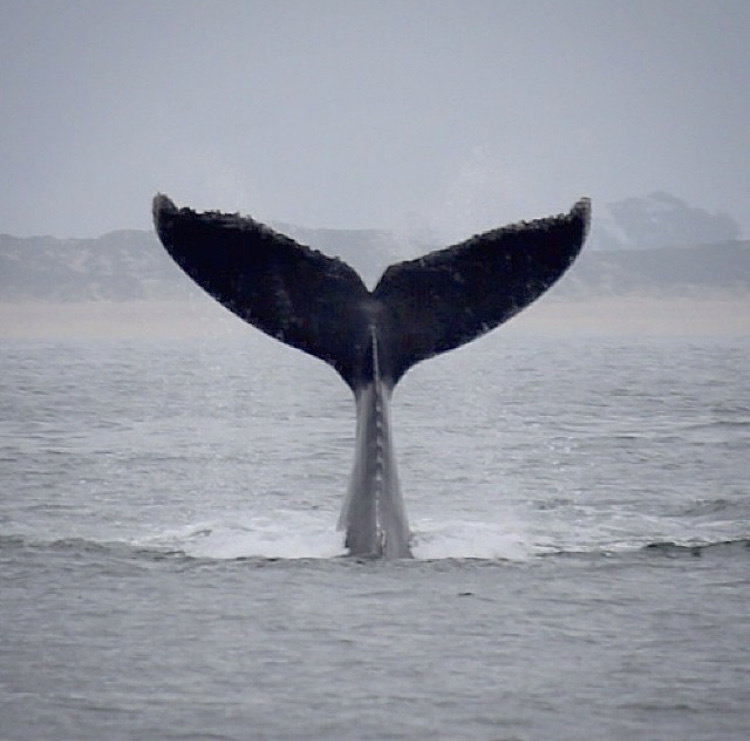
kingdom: Animalia
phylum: Chordata
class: Mammalia
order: Cetacea
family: Balaenopteridae
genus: Megaptera
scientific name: Megaptera novaeangliae
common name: Humpback whale
